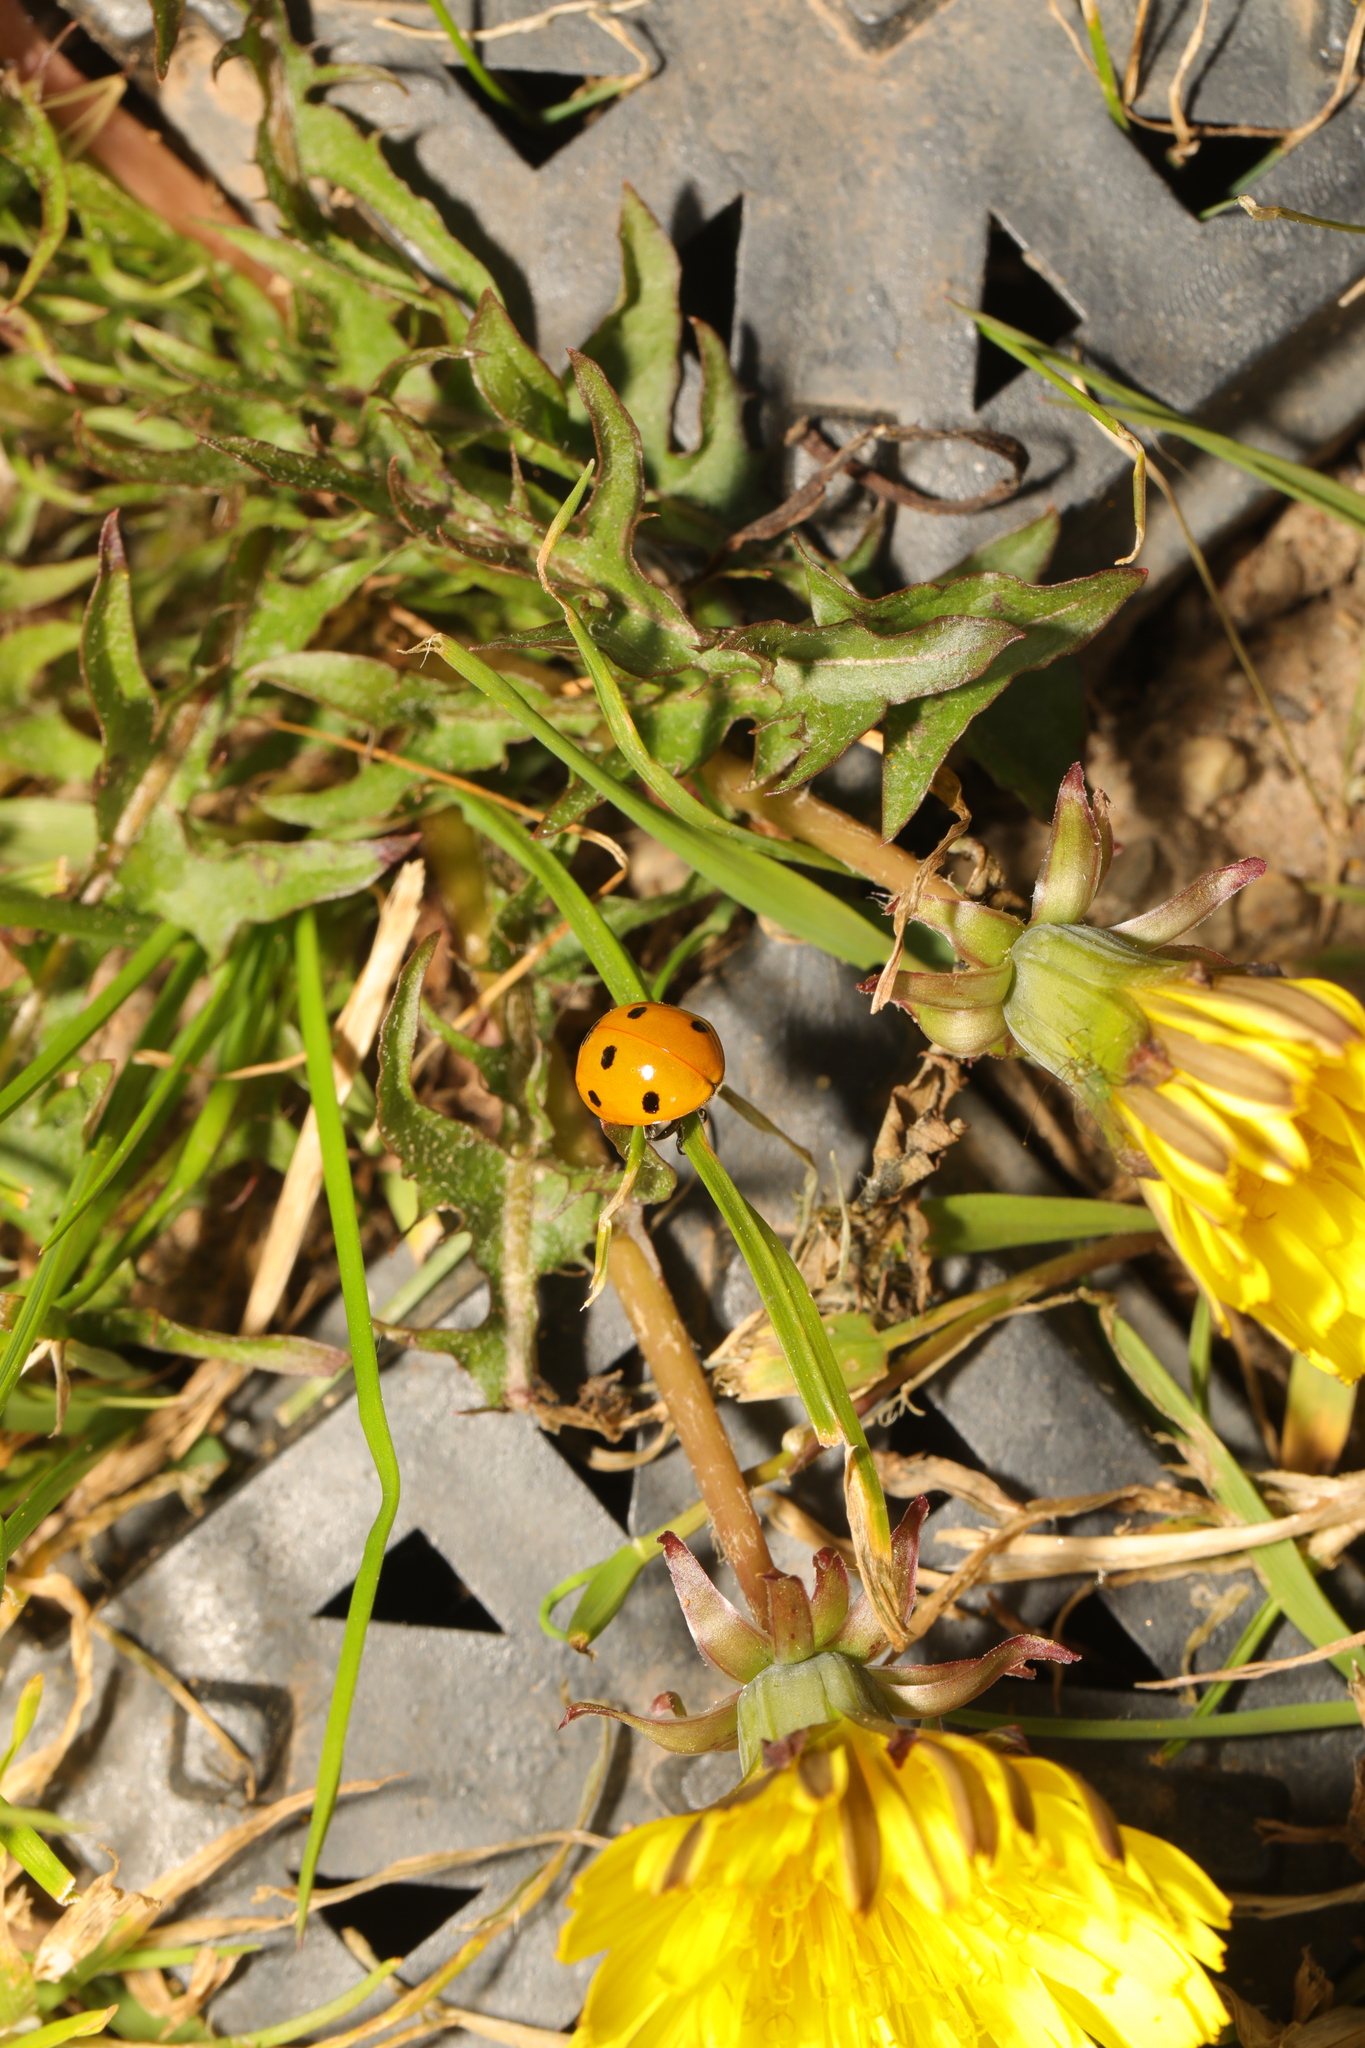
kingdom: Animalia
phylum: Arthropoda
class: Insecta
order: Coleoptera
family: Coccinellidae
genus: Coccinella
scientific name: Coccinella septempunctata
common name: Sevenspotted lady beetle
